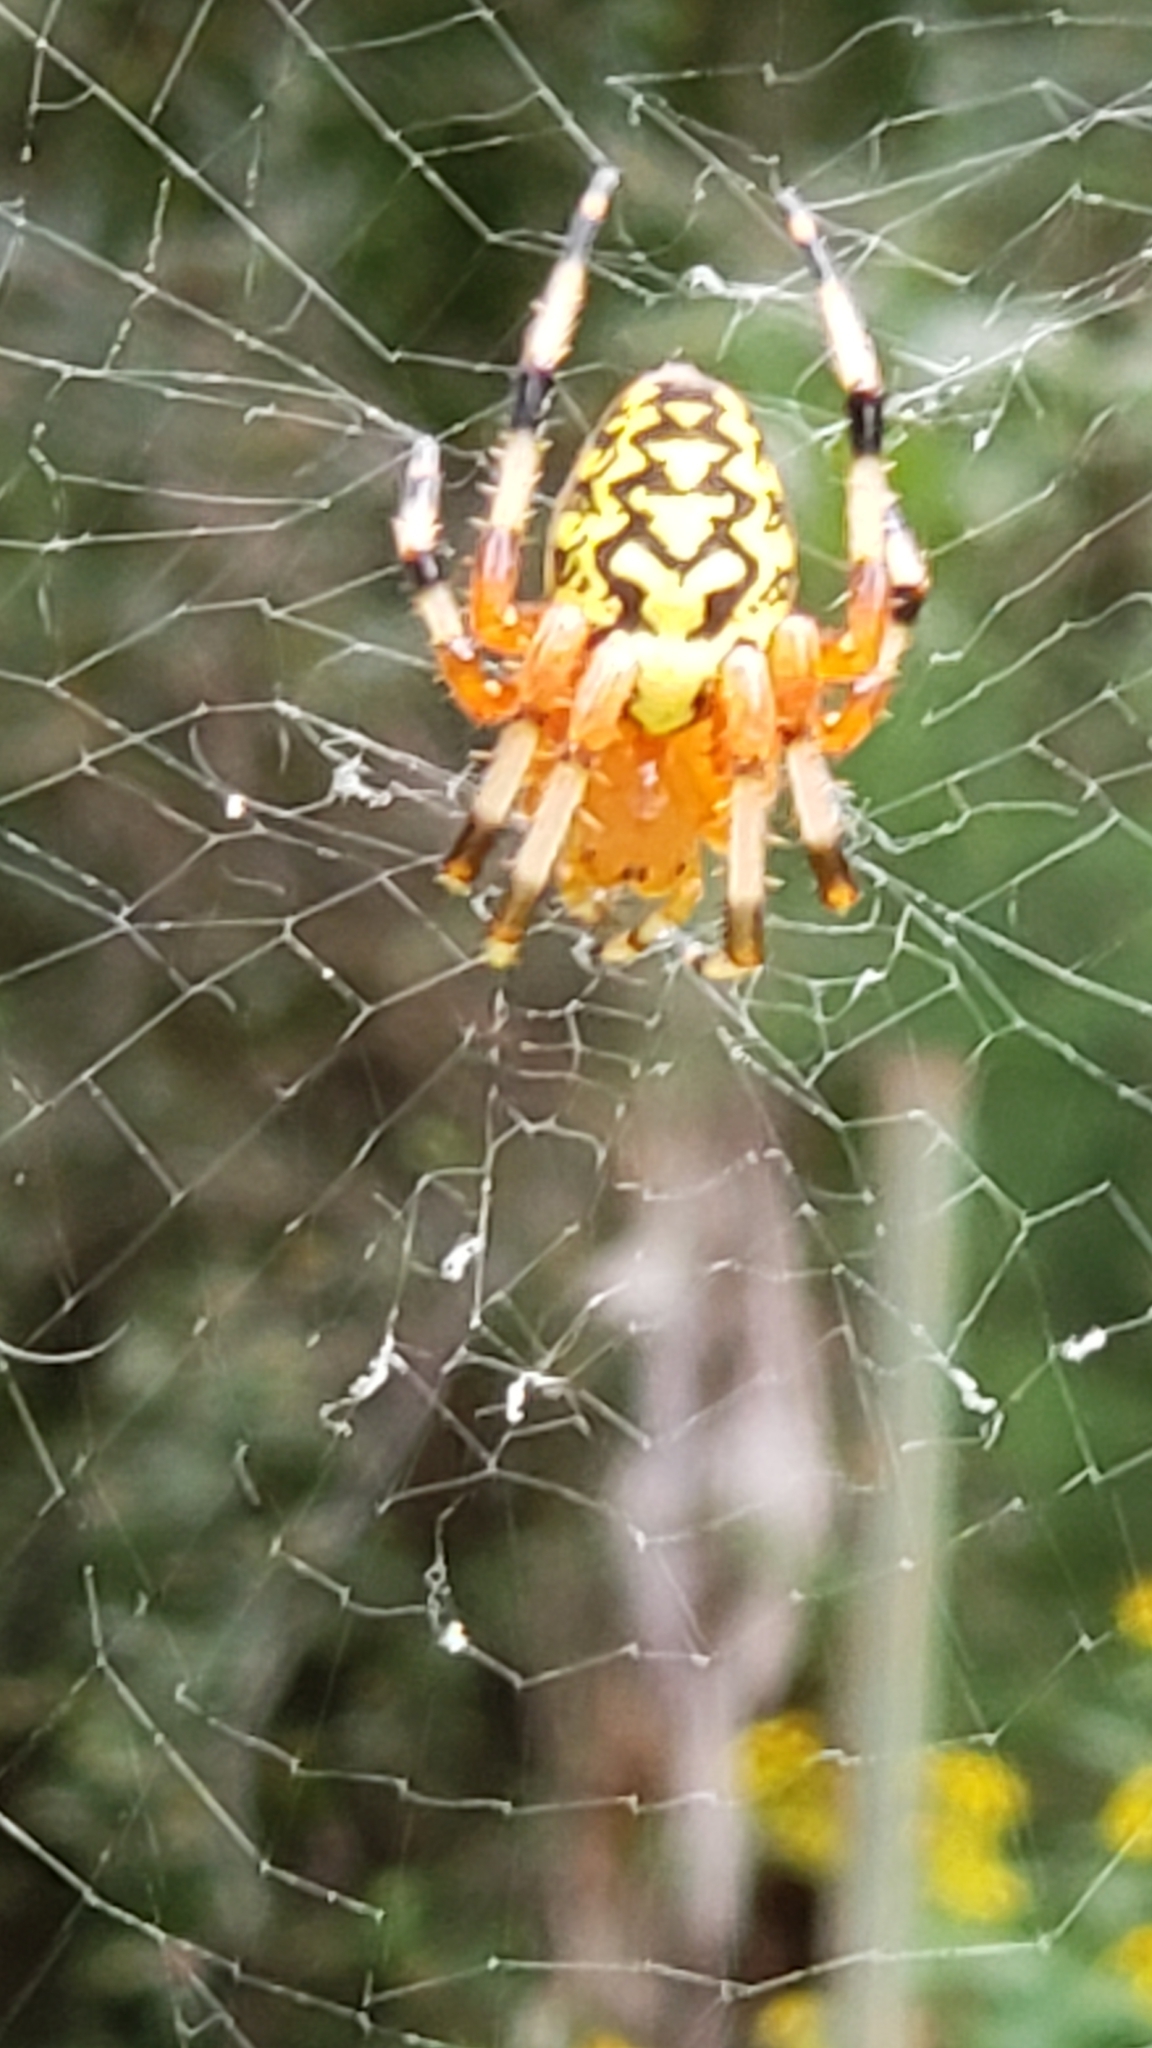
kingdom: Animalia
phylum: Arthropoda
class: Arachnida
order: Araneae
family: Araneidae
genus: Araneus
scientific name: Araneus marmoreus
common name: Marbled orbweaver
